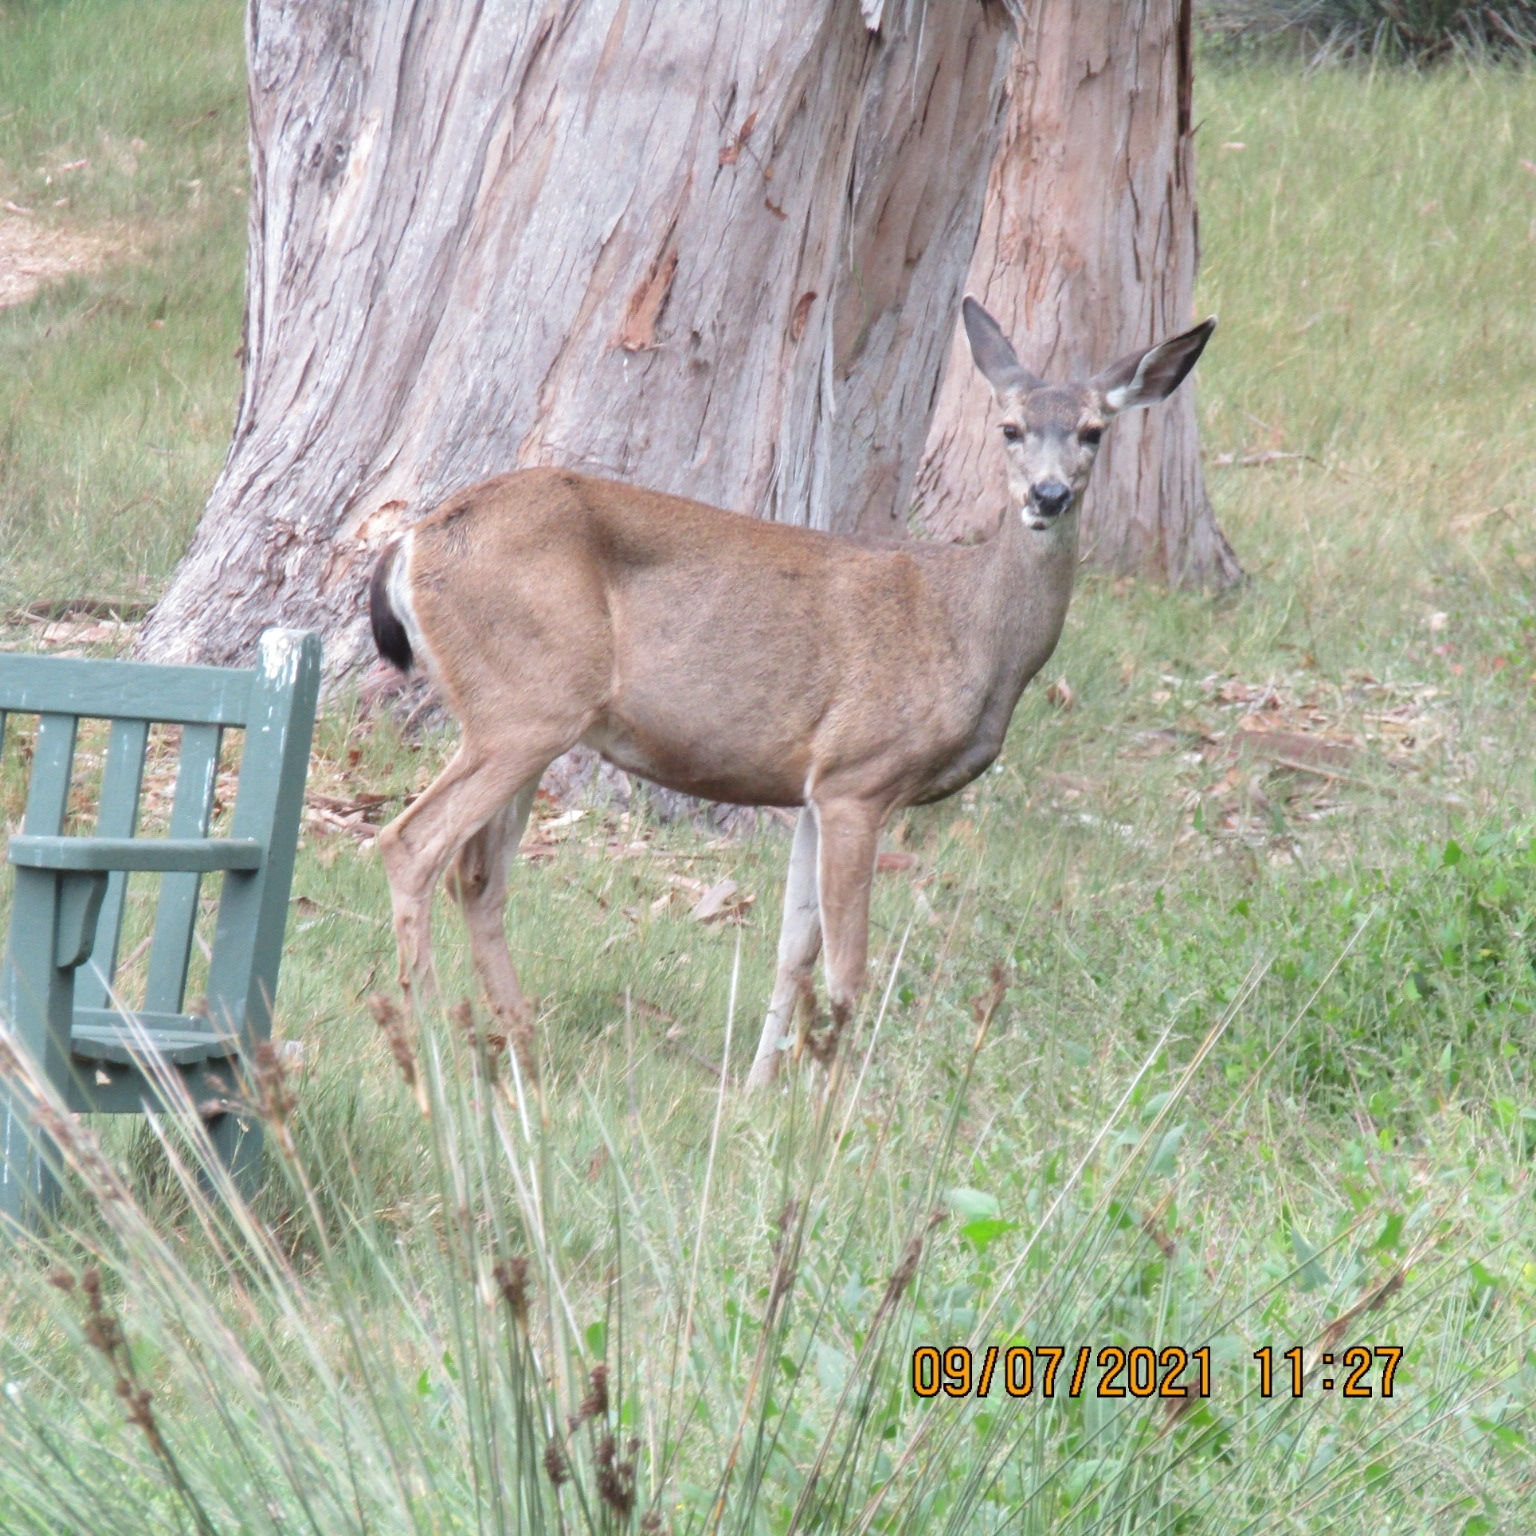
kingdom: Animalia
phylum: Chordata
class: Mammalia
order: Artiodactyla
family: Cervidae
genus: Odocoileus
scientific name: Odocoileus hemionus
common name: Mule deer
